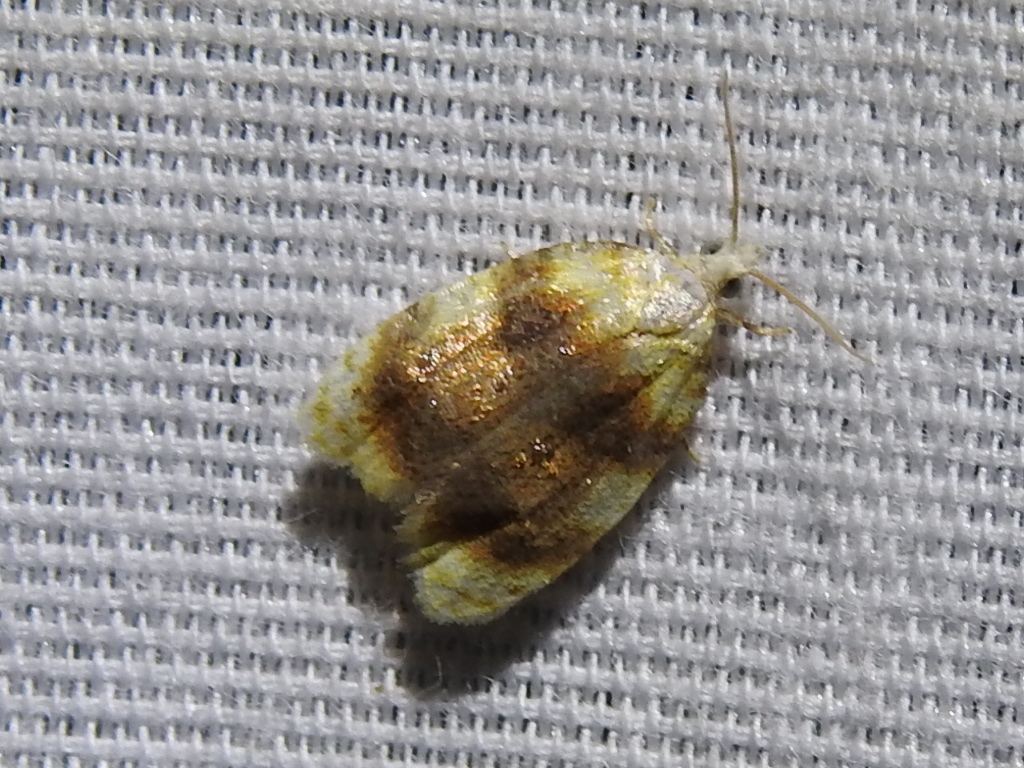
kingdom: Animalia
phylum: Arthropoda
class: Insecta
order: Lepidoptera
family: Tortricidae
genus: Acleris
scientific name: Acleris semipurpurana
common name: Oak leaftier moth
